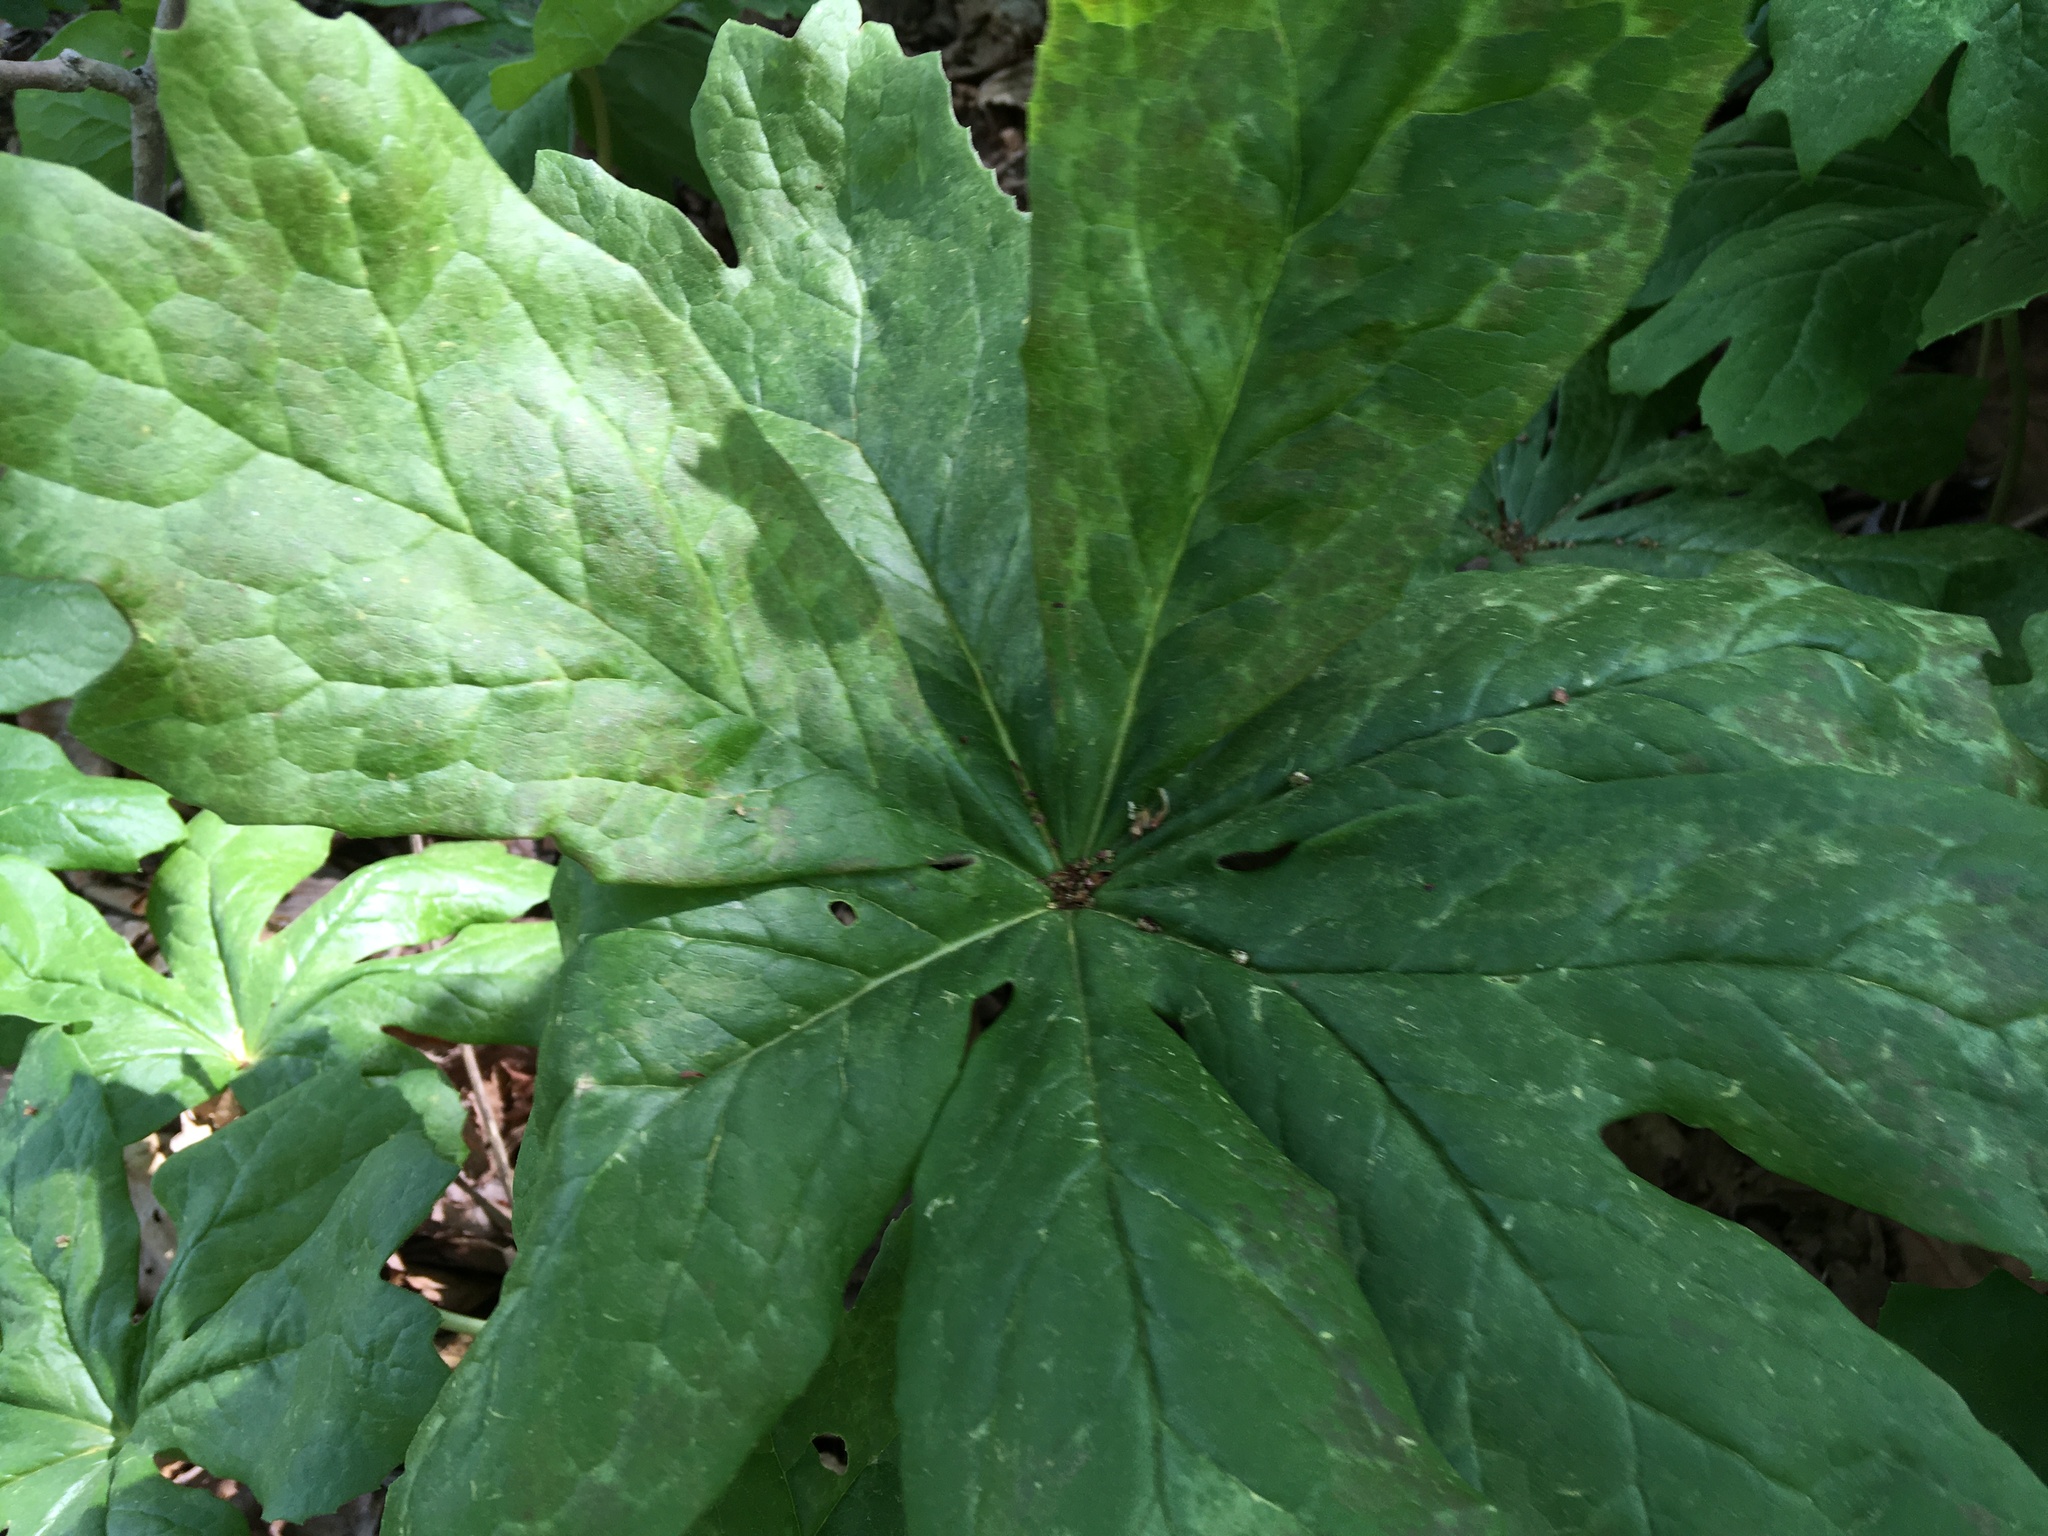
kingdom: Plantae
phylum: Tracheophyta
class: Magnoliopsida
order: Ranunculales
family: Berberidaceae
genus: Podophyllum
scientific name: Podophyllum peltatum
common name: Wild mandrake
